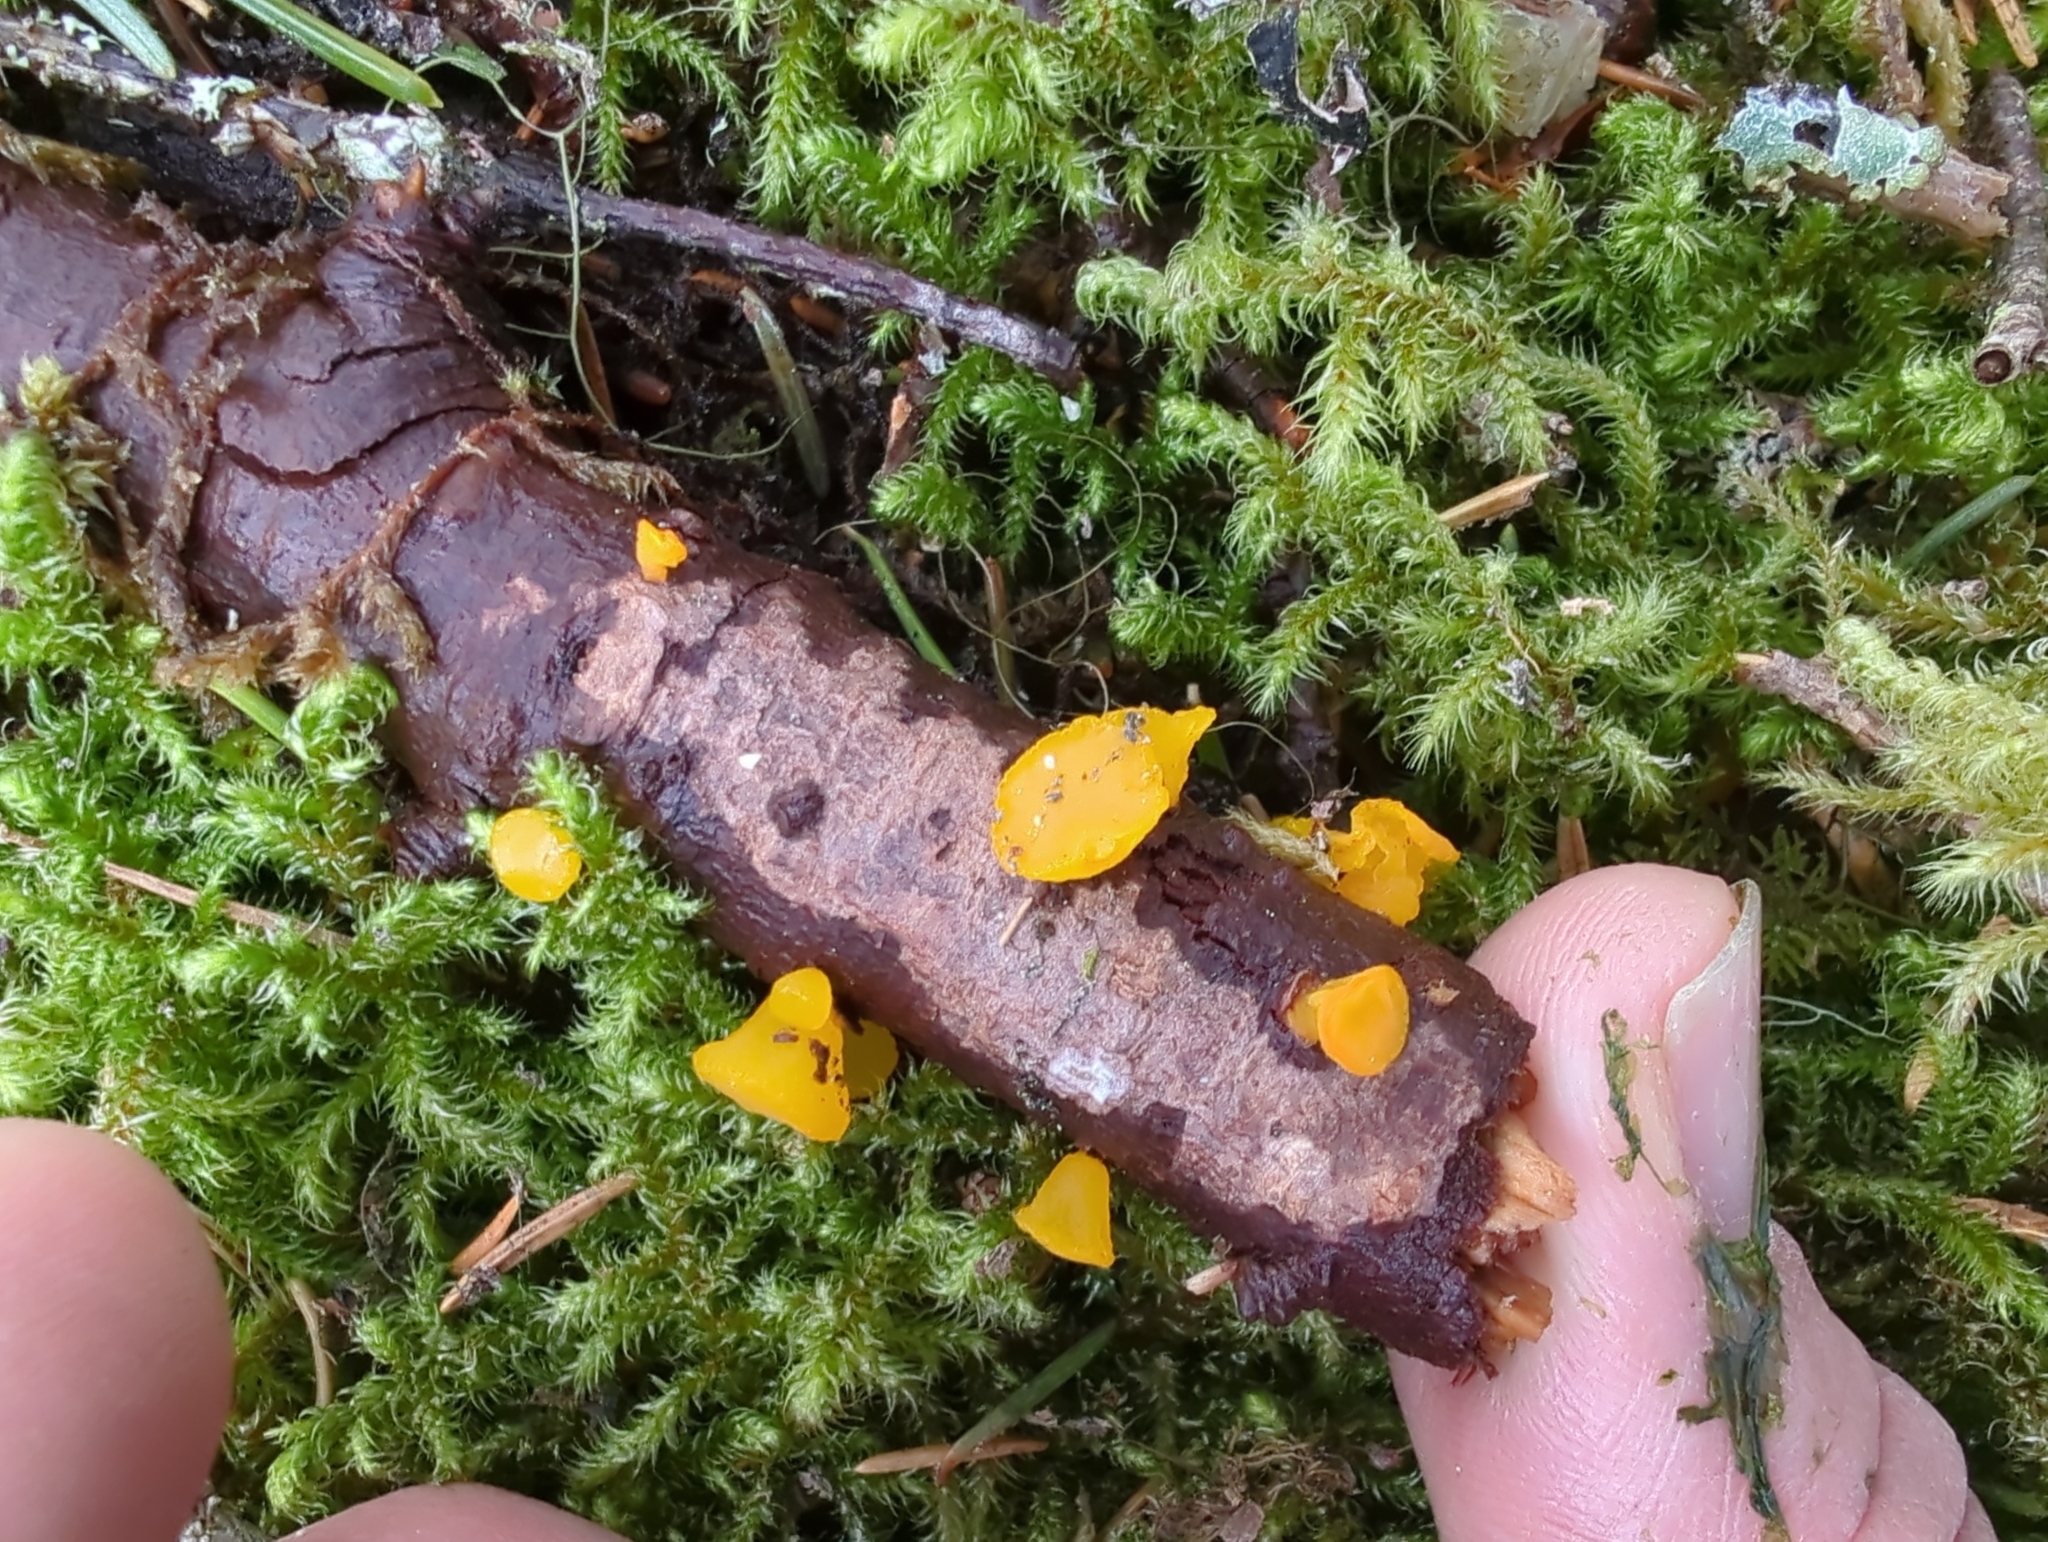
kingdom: Fungi
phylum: Basidiomycota
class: Dacrymycetes
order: Dacrymycetales
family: Dacrymycetaceae
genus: Guepiniopsis
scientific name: Guepiniopsis alpina
